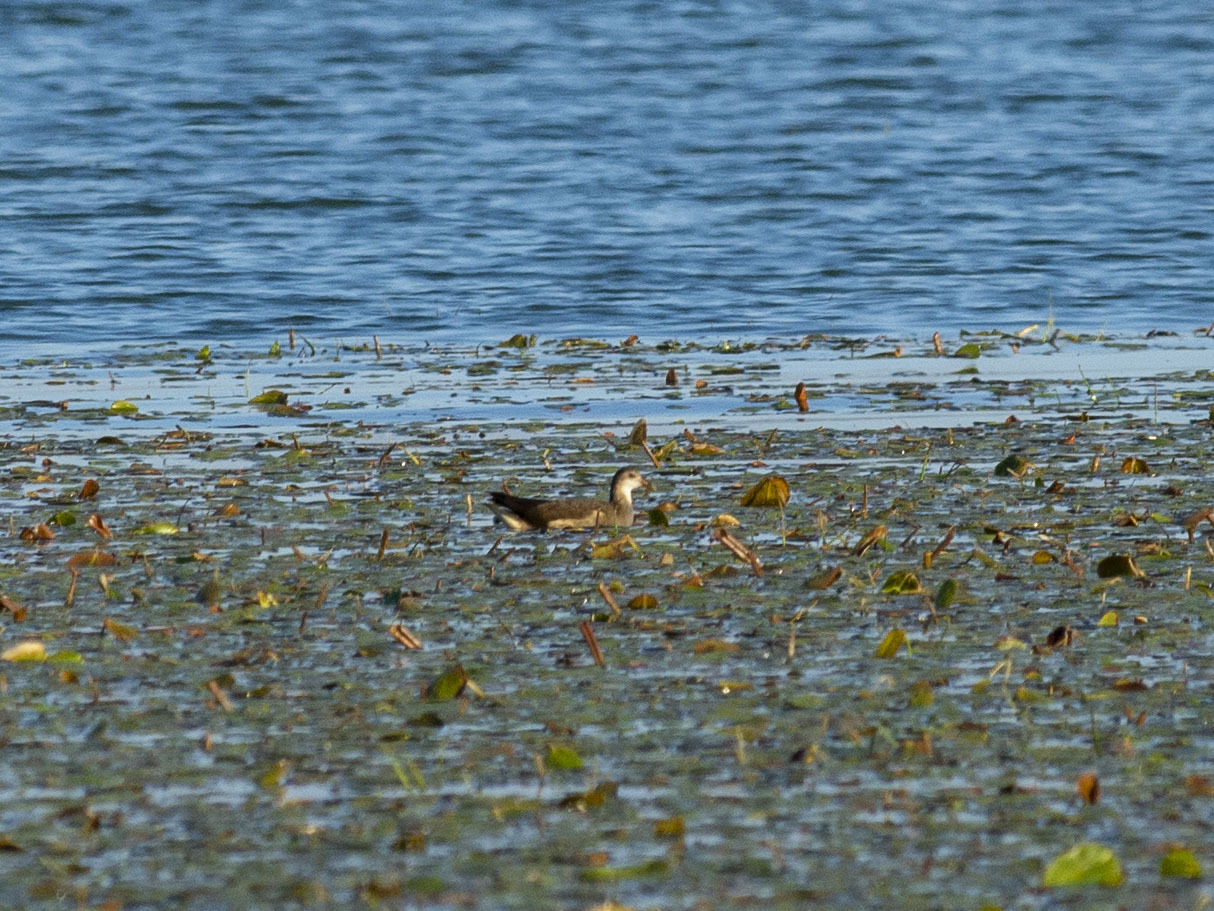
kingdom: Animalia
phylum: Chordata
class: Aves
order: Gruiformes
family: Rallidae
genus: Gallinula
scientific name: Gallinula chloropus
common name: Common moorhen
